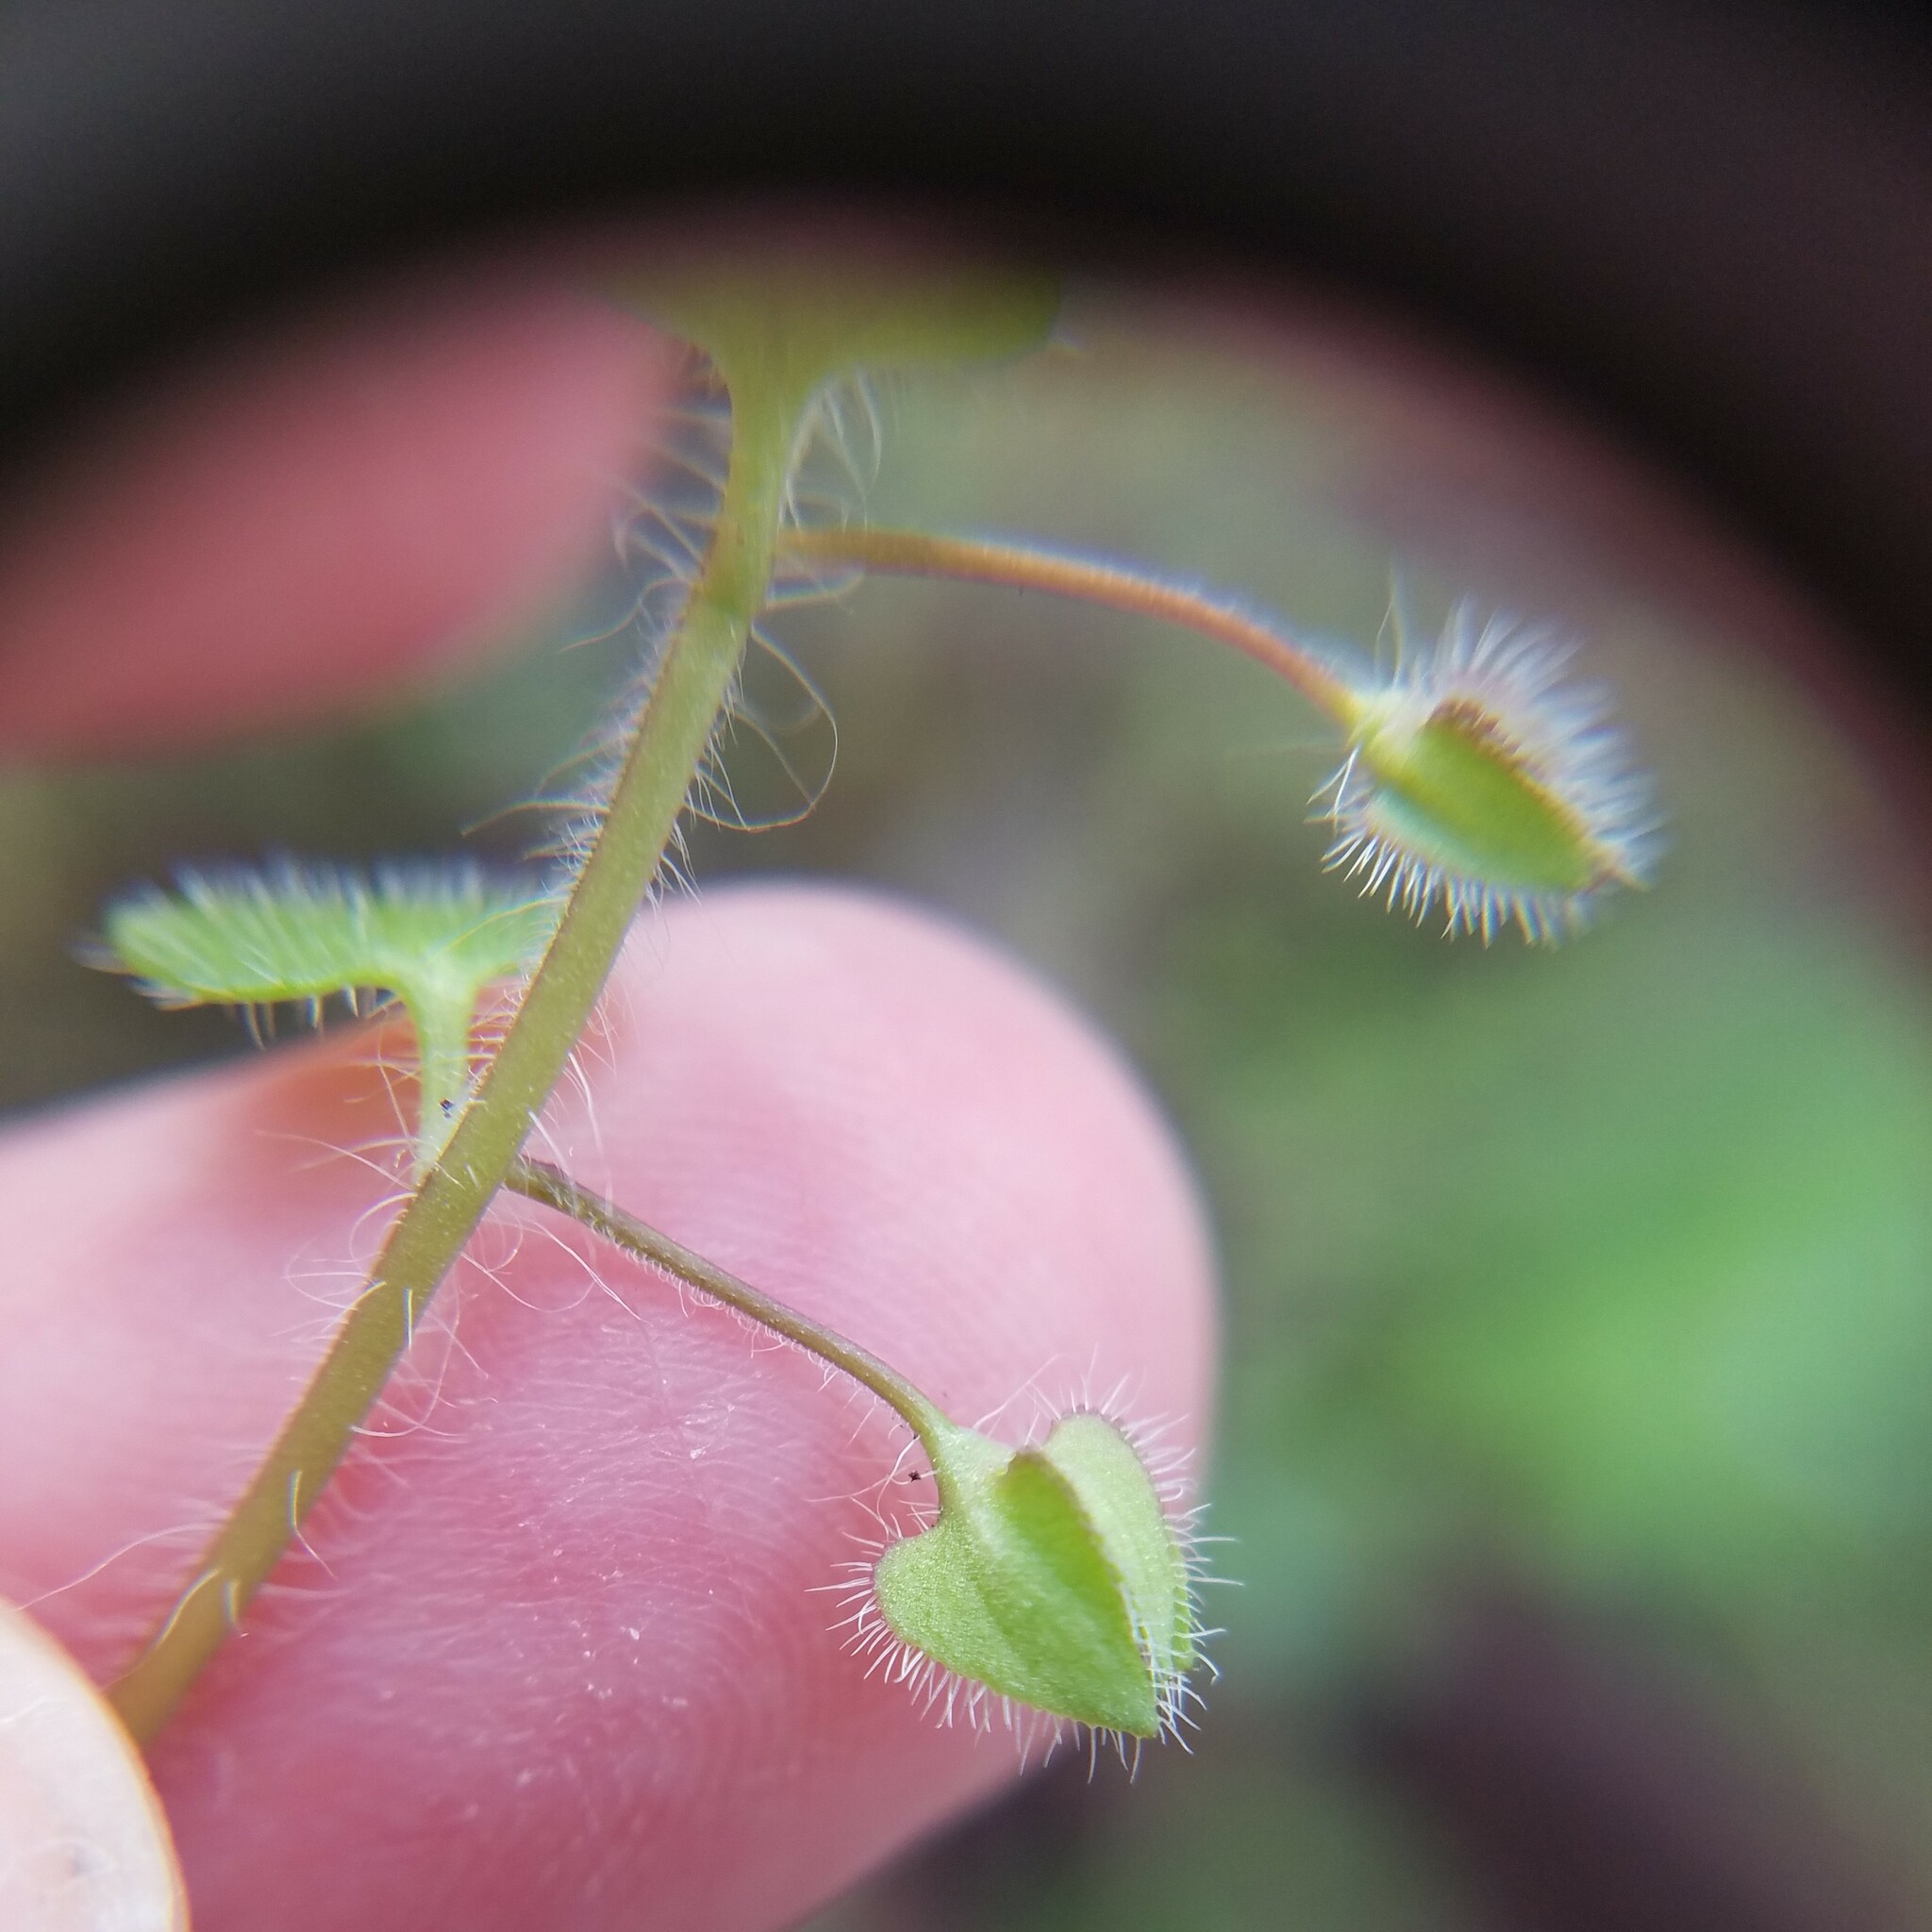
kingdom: Plantae
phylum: Tracheophyta
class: Magnoliopsida
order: Lamiales
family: Plantaginaceae
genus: Veronica
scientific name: Veronica hederifolia
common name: Ivy-leaved speedwell
